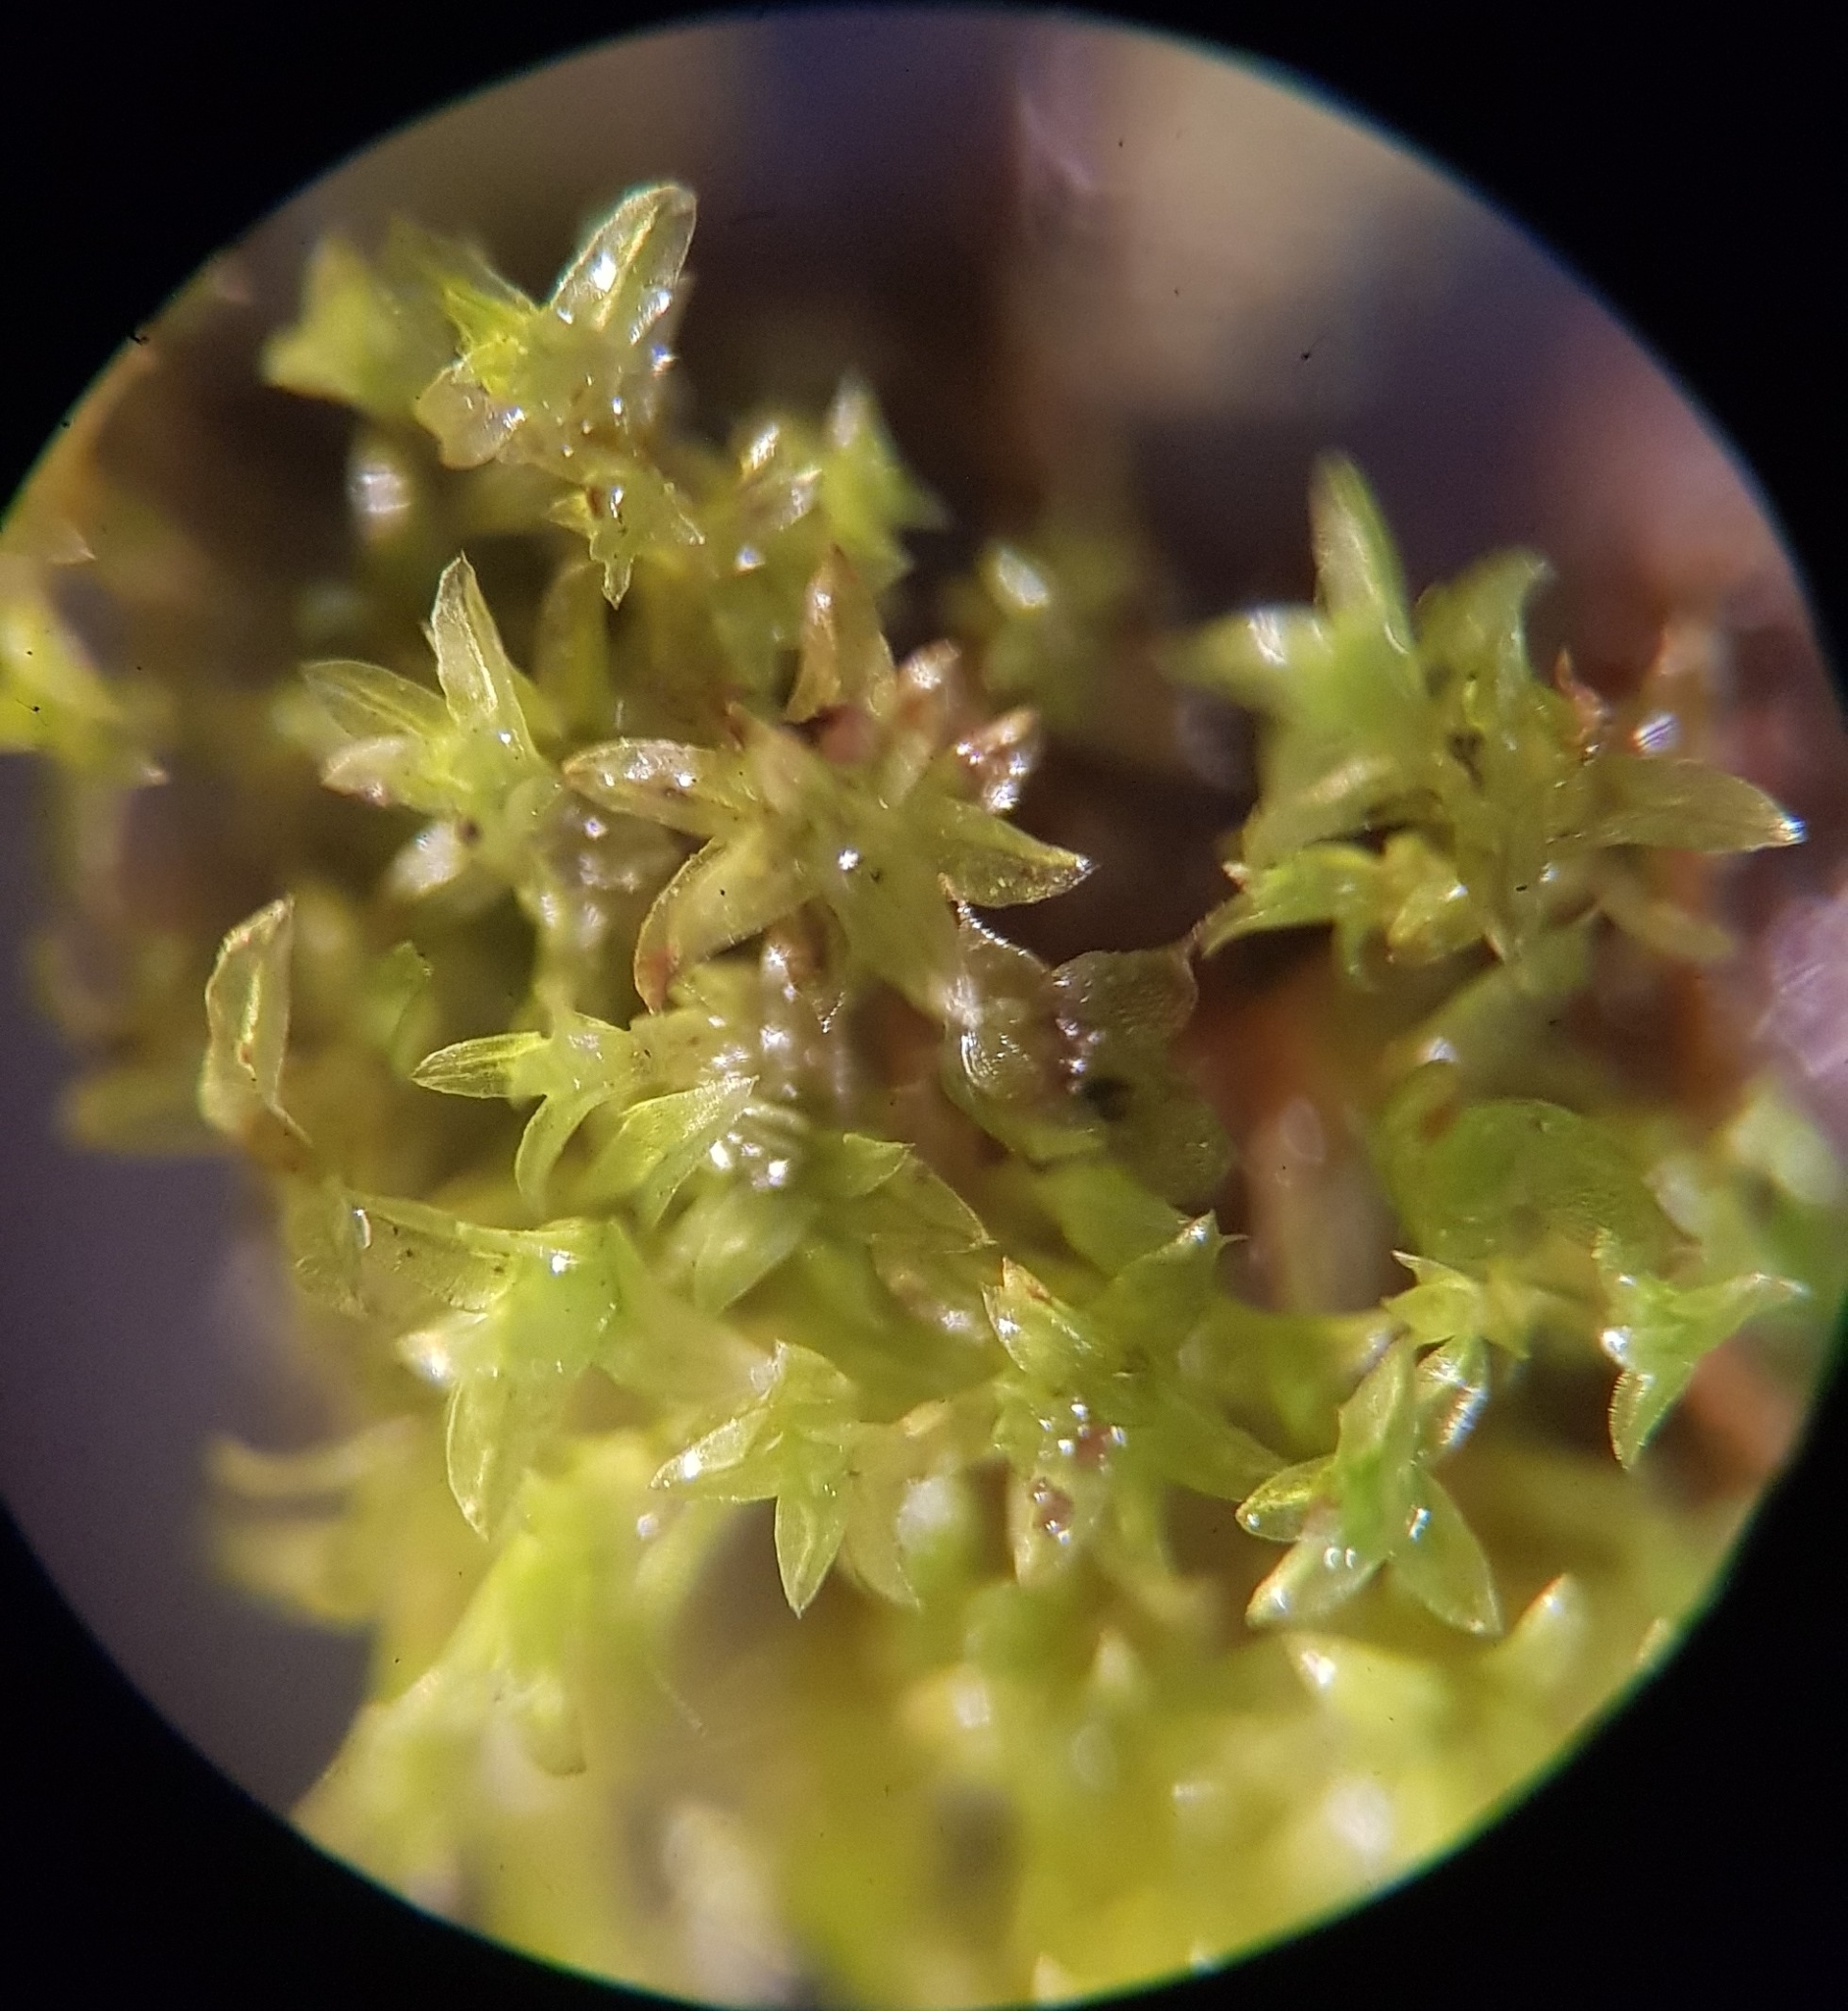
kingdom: Plantae
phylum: Bryophyta
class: Bryopsida
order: Pottiales
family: Pottiaceae
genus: Streblotrichum
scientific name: Streblotrichum convolutum
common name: Lesser bird's-claw beard-moss
